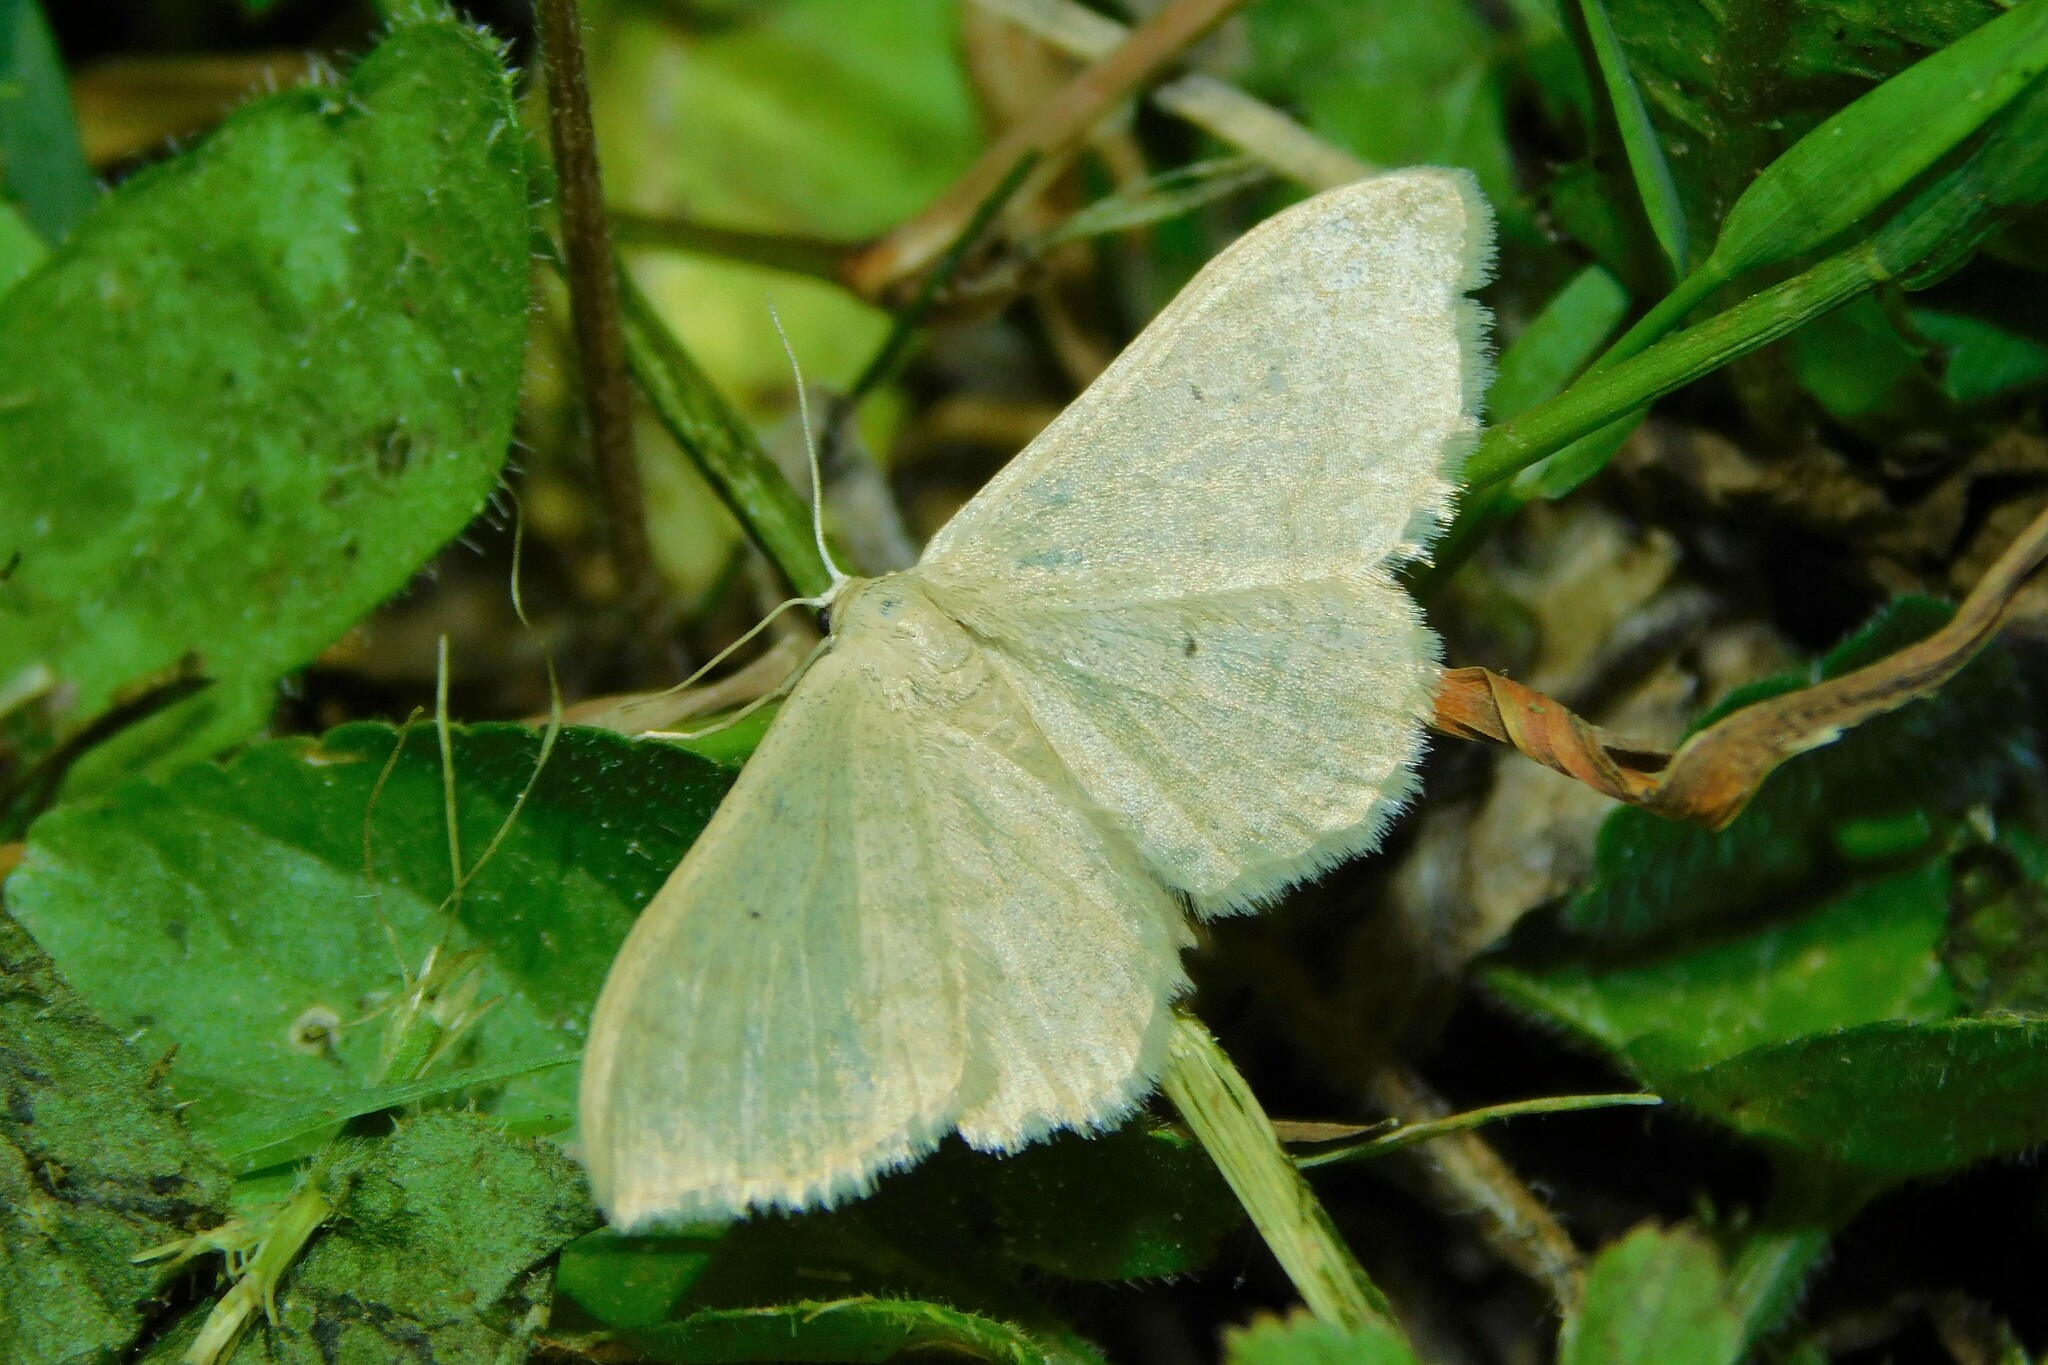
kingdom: Animalia
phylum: Arthropoda
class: Insecta
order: Lepidoptera
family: Geometridae
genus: Idaea
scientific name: Idaea straminata
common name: Plain wave
